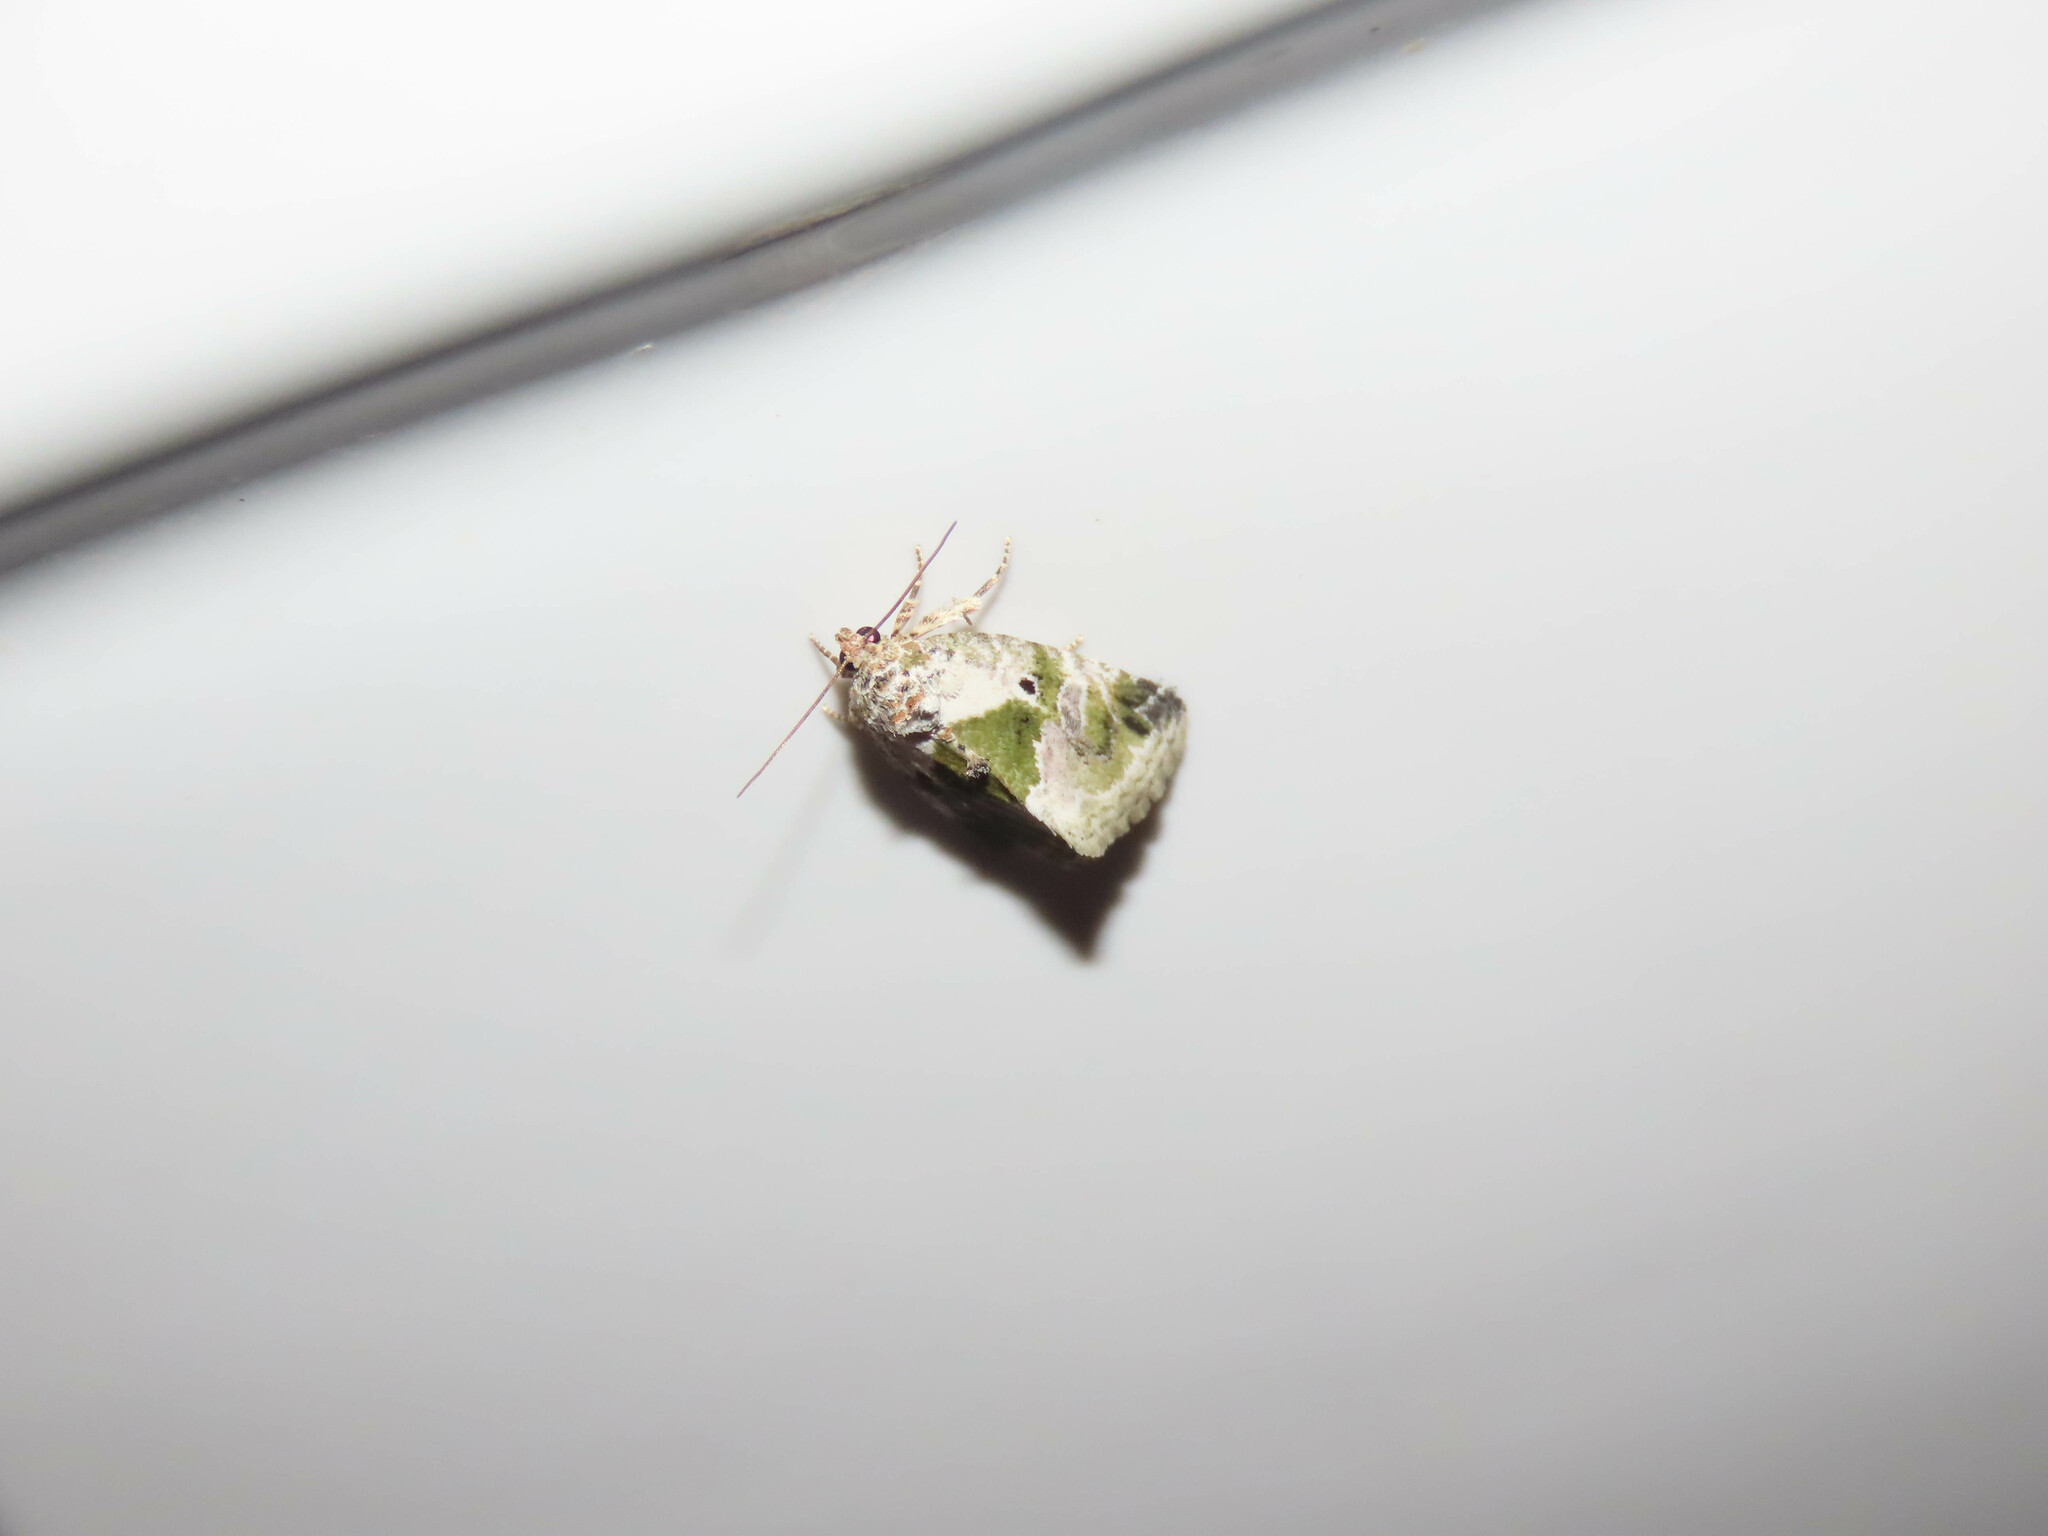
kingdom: Animalia
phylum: Arthropoda
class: Insecta
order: Lepidoptera
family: Noctuidae
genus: Maliattha
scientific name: Maliattha synochitis
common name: Black-dotted glyph
